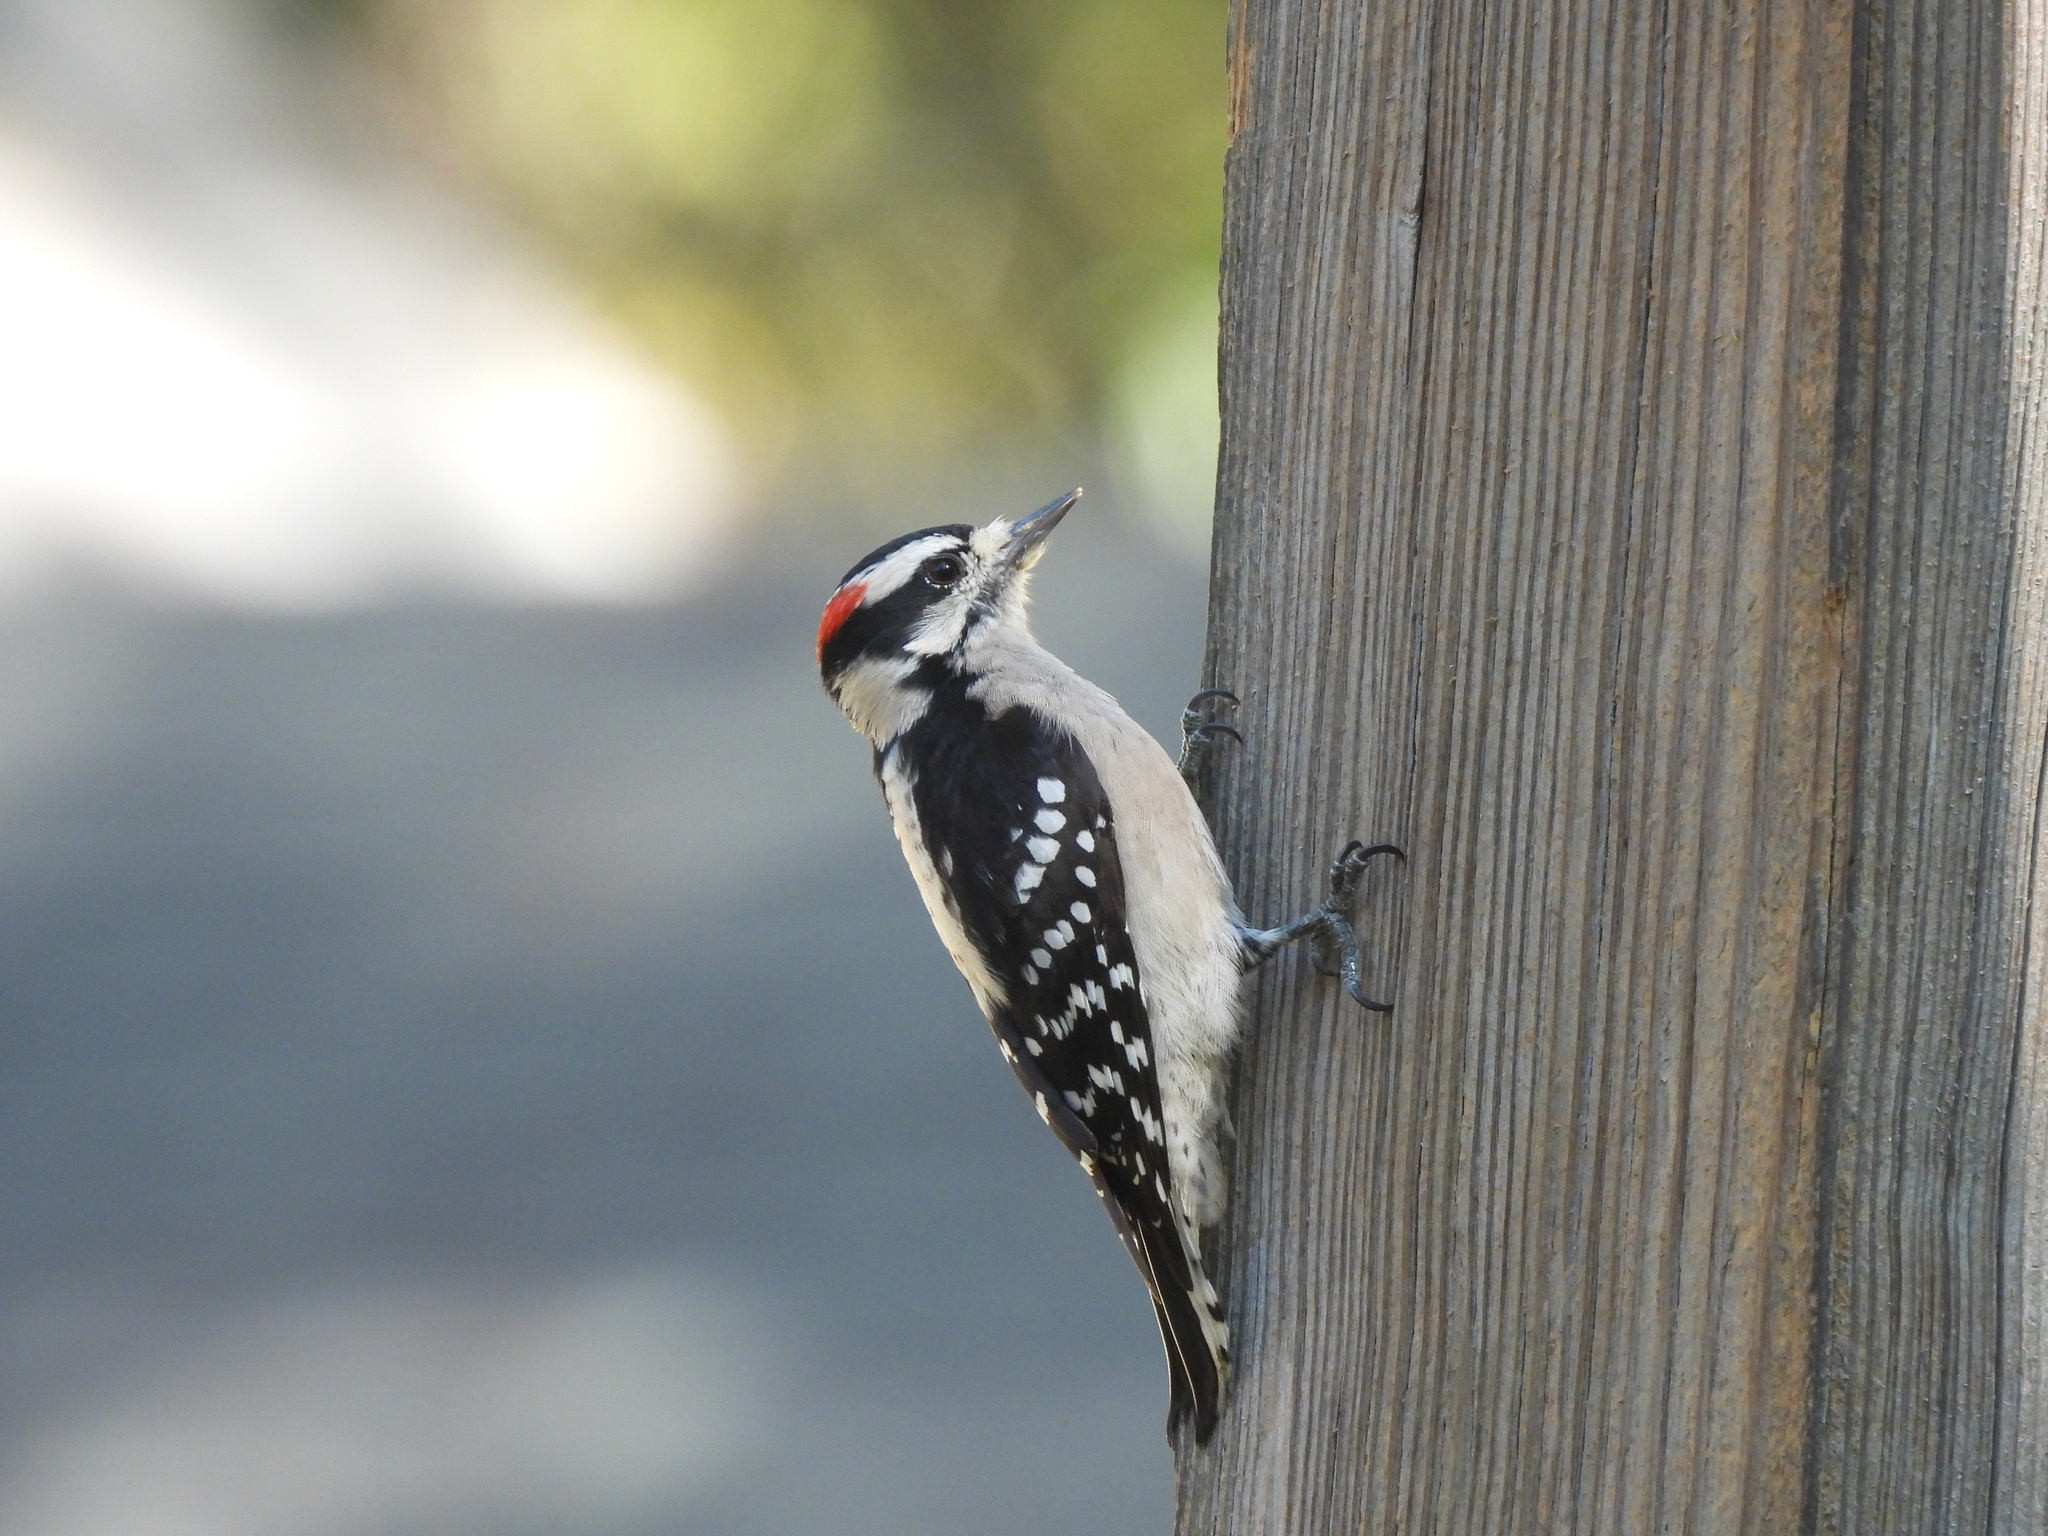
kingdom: Animalia
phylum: Chordata
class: Aves
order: Piciformes
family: Picidae
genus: Dryobates
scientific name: Dryobates pubescens
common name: Downy woodpecker
